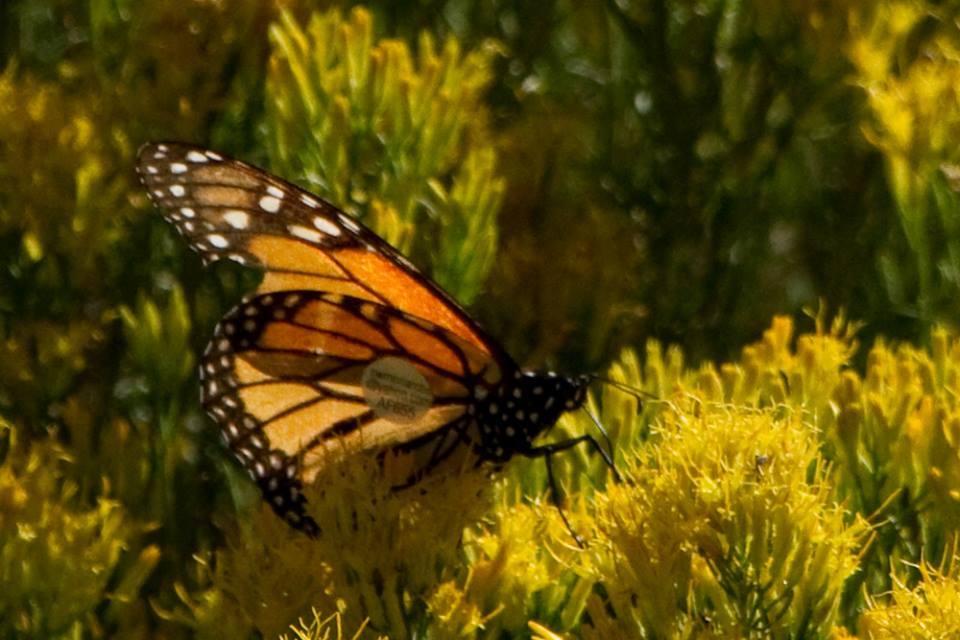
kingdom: Animalia
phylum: Arthropoda
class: Insecta
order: Lepidoptera
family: Nymphalidae
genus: Danaus
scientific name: Danaus plexippus
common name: Monarch
